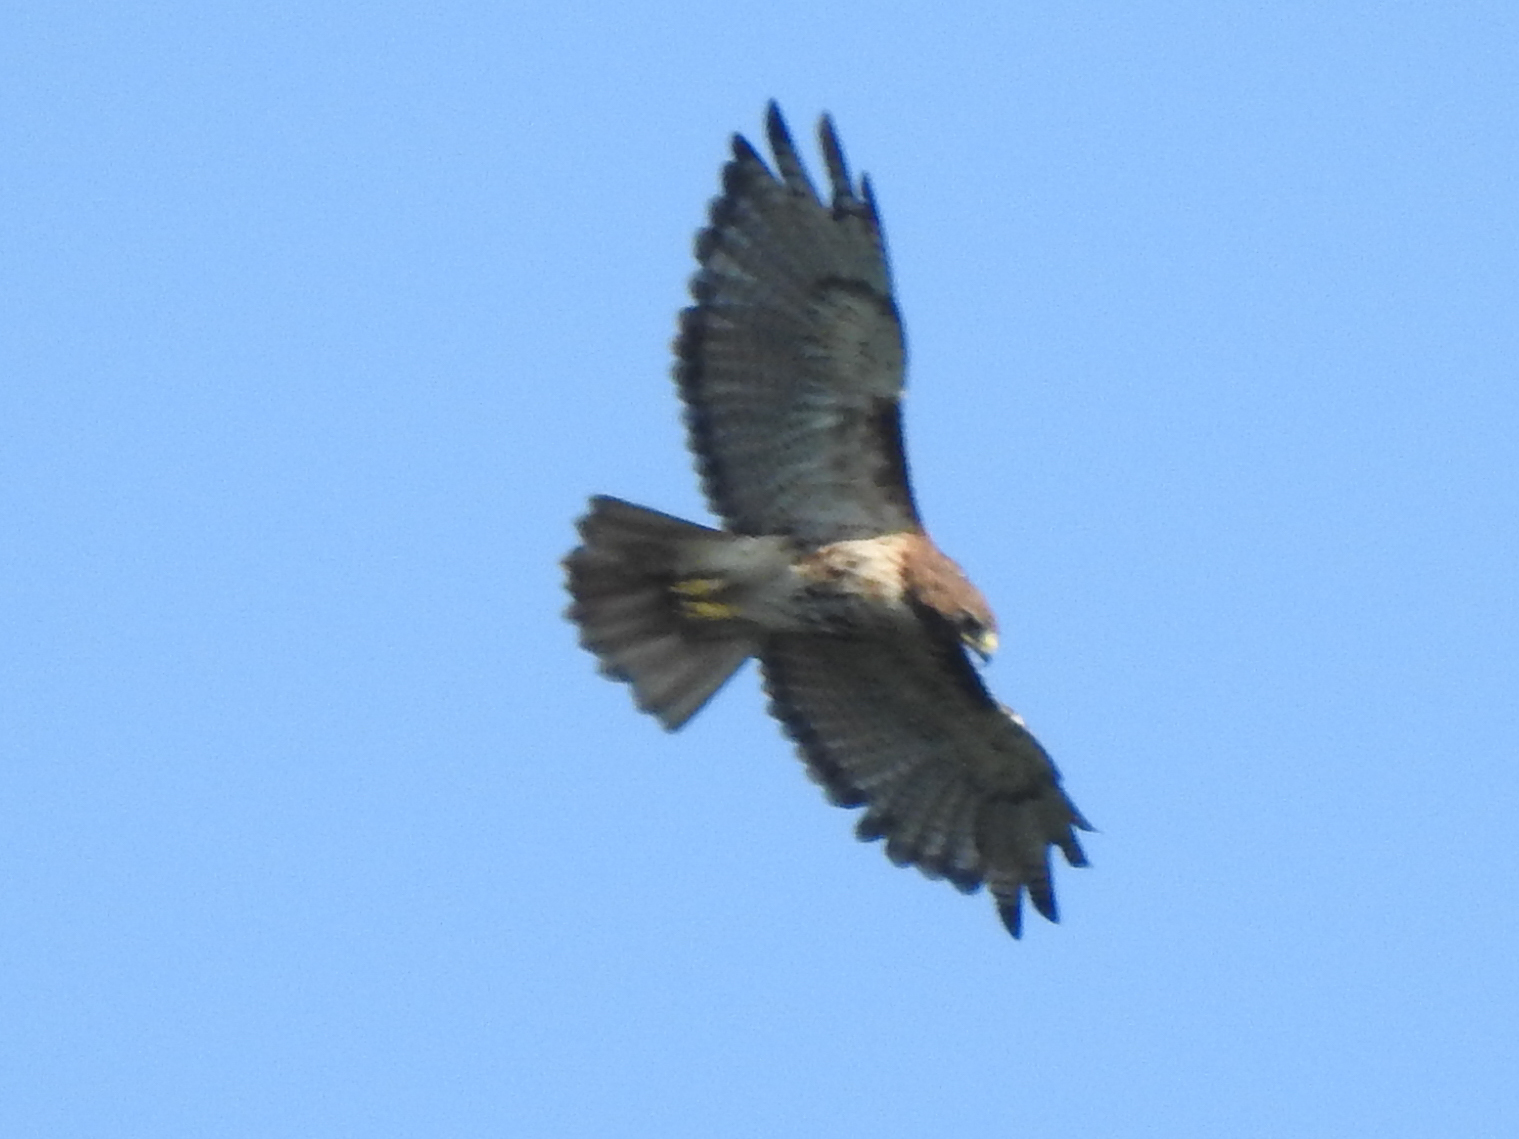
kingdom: Animalia
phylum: Chordata
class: Aves
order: Accipitriformes
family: Accipitridae
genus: Buteo
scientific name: Buteo jamaicensis
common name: Red-tailed hawk
